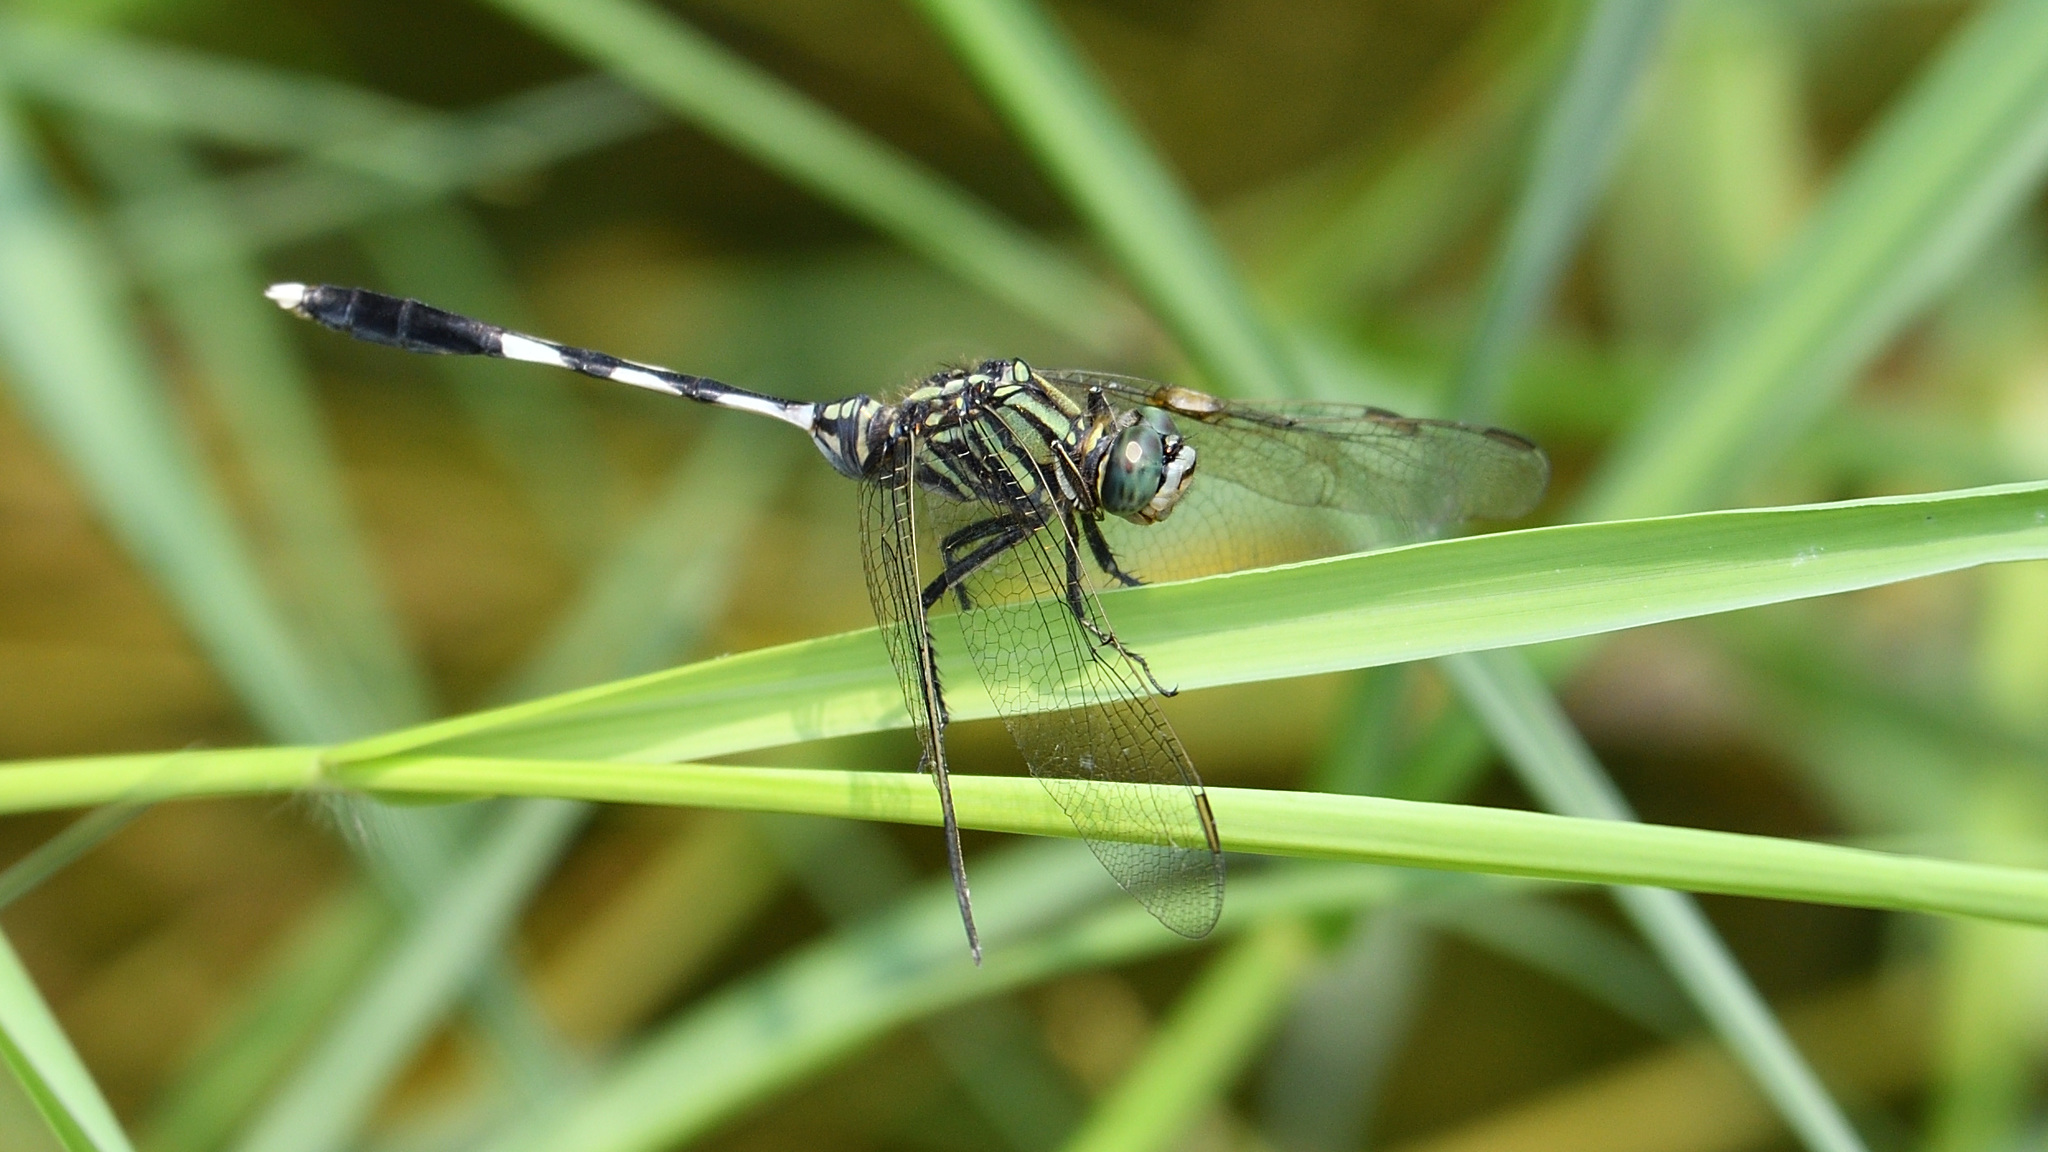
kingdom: Animalia
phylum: Arthropoda
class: Insecta
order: Odonata
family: Libellulidae
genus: Orthetrum
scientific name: Orthetrum sabina
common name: Slender skimmer
